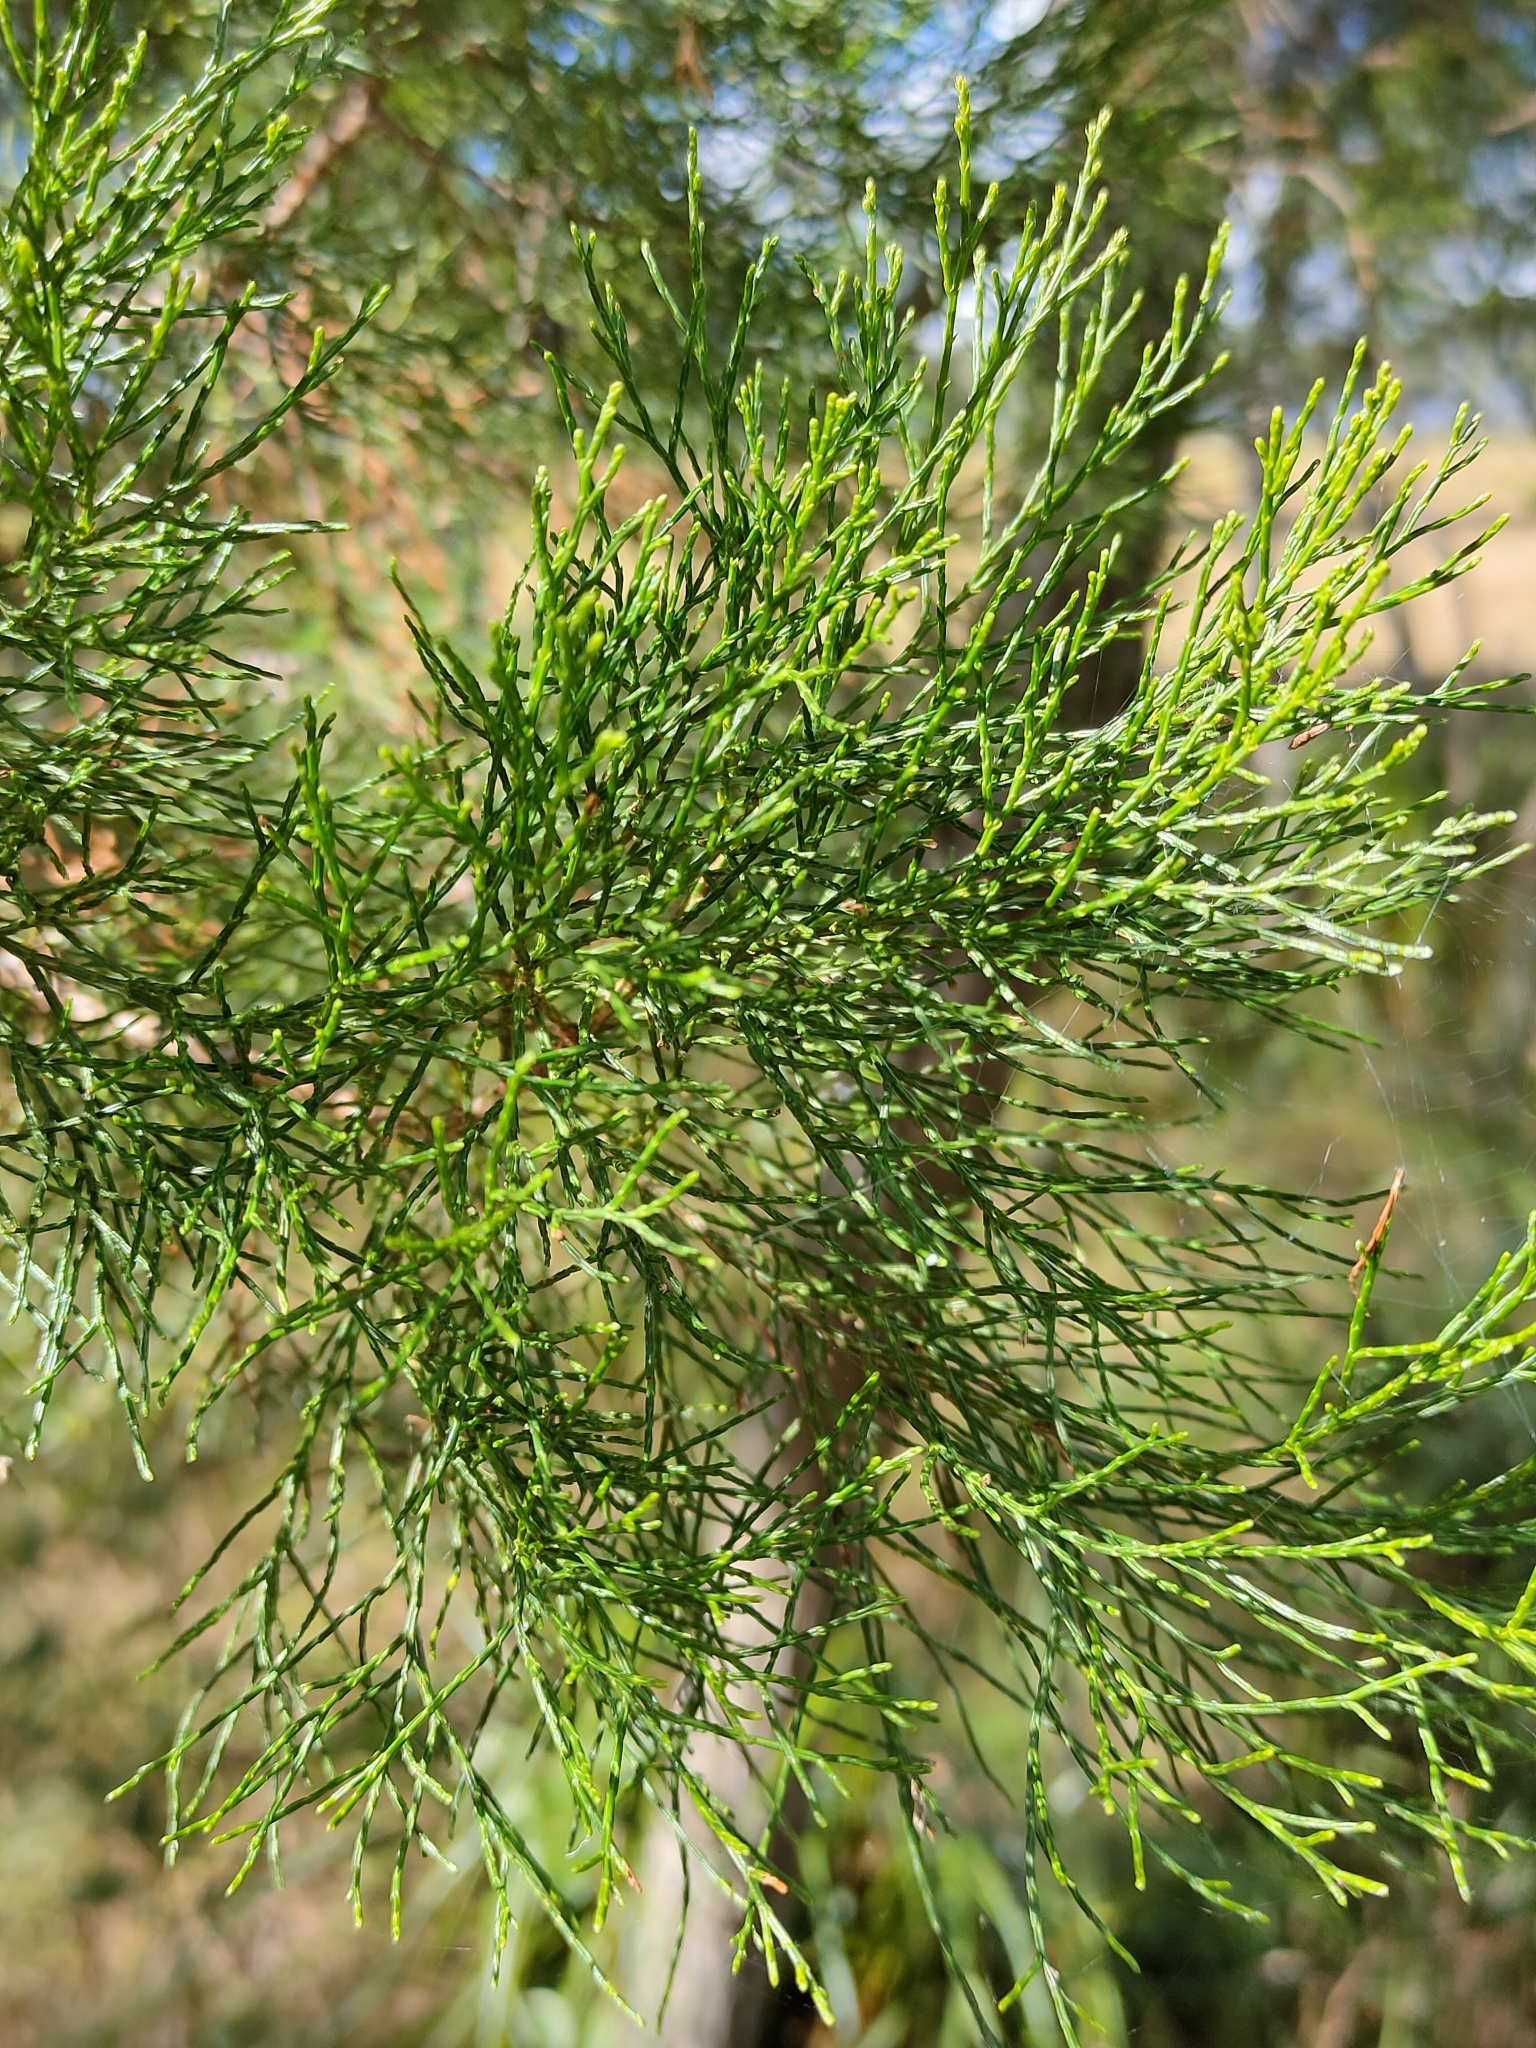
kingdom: Plantae
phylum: Tracheophyta
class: Pinopsida
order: Pinales
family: Cupressaceae
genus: Callitris
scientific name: Callitris columellaris
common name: White cypress-pine
